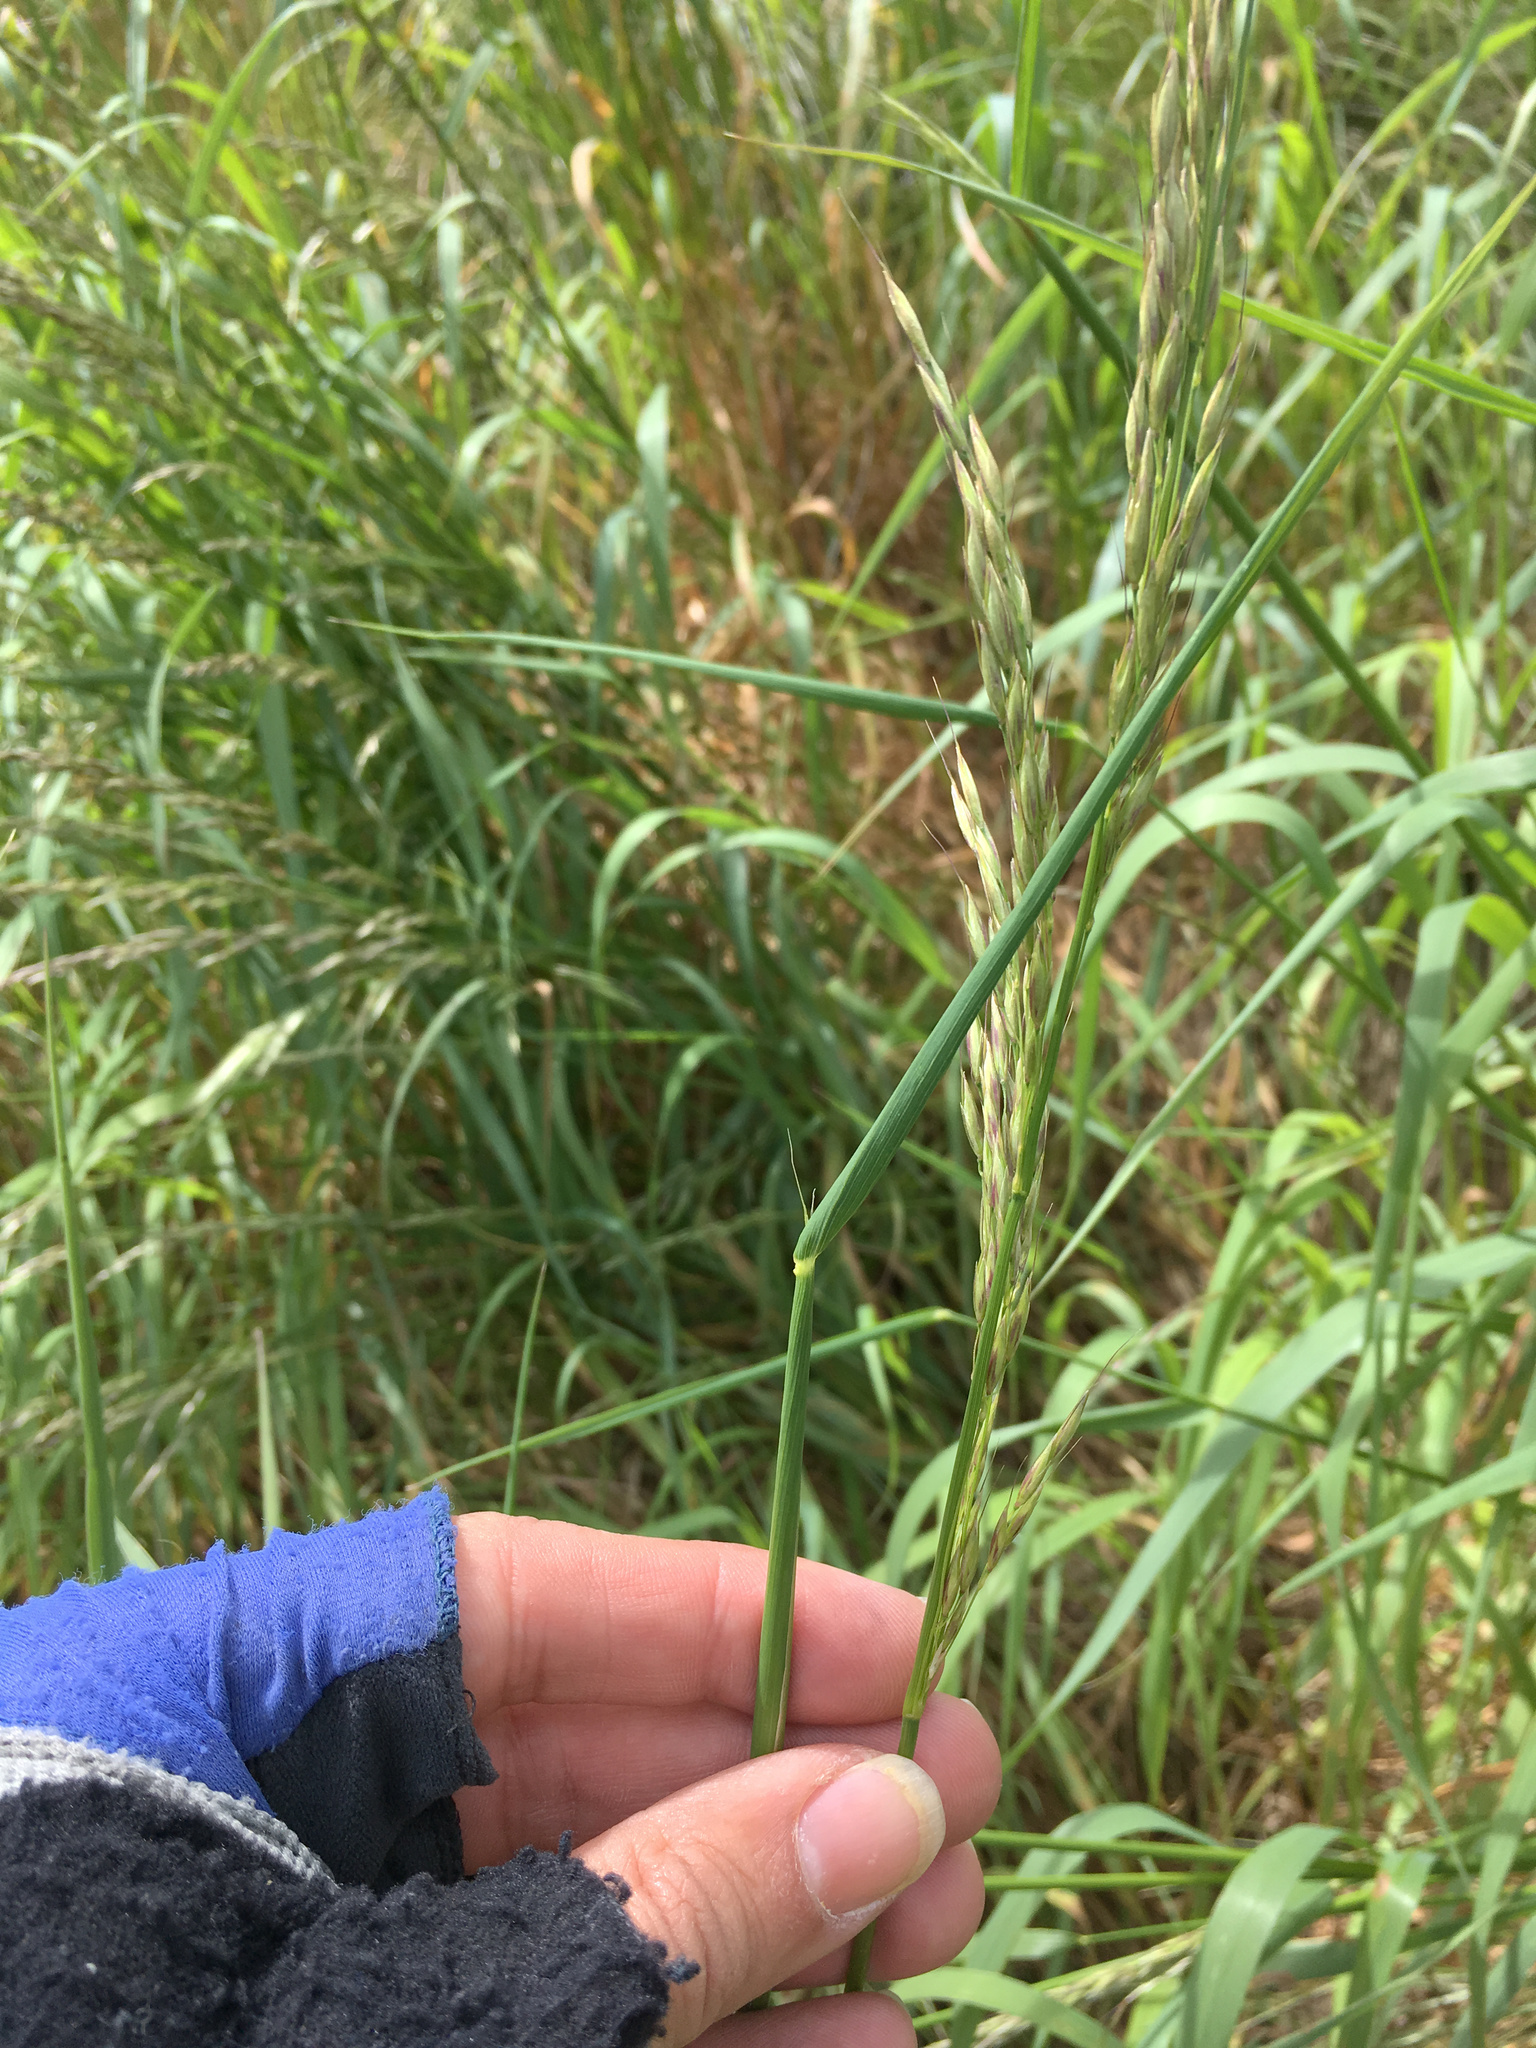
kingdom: Plantae
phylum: Tracheophyta
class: Liliopsida
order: Poales
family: Poaceae
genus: Arrhenatherum
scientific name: Arrhenatherum elatius
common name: Tall oatgrass
